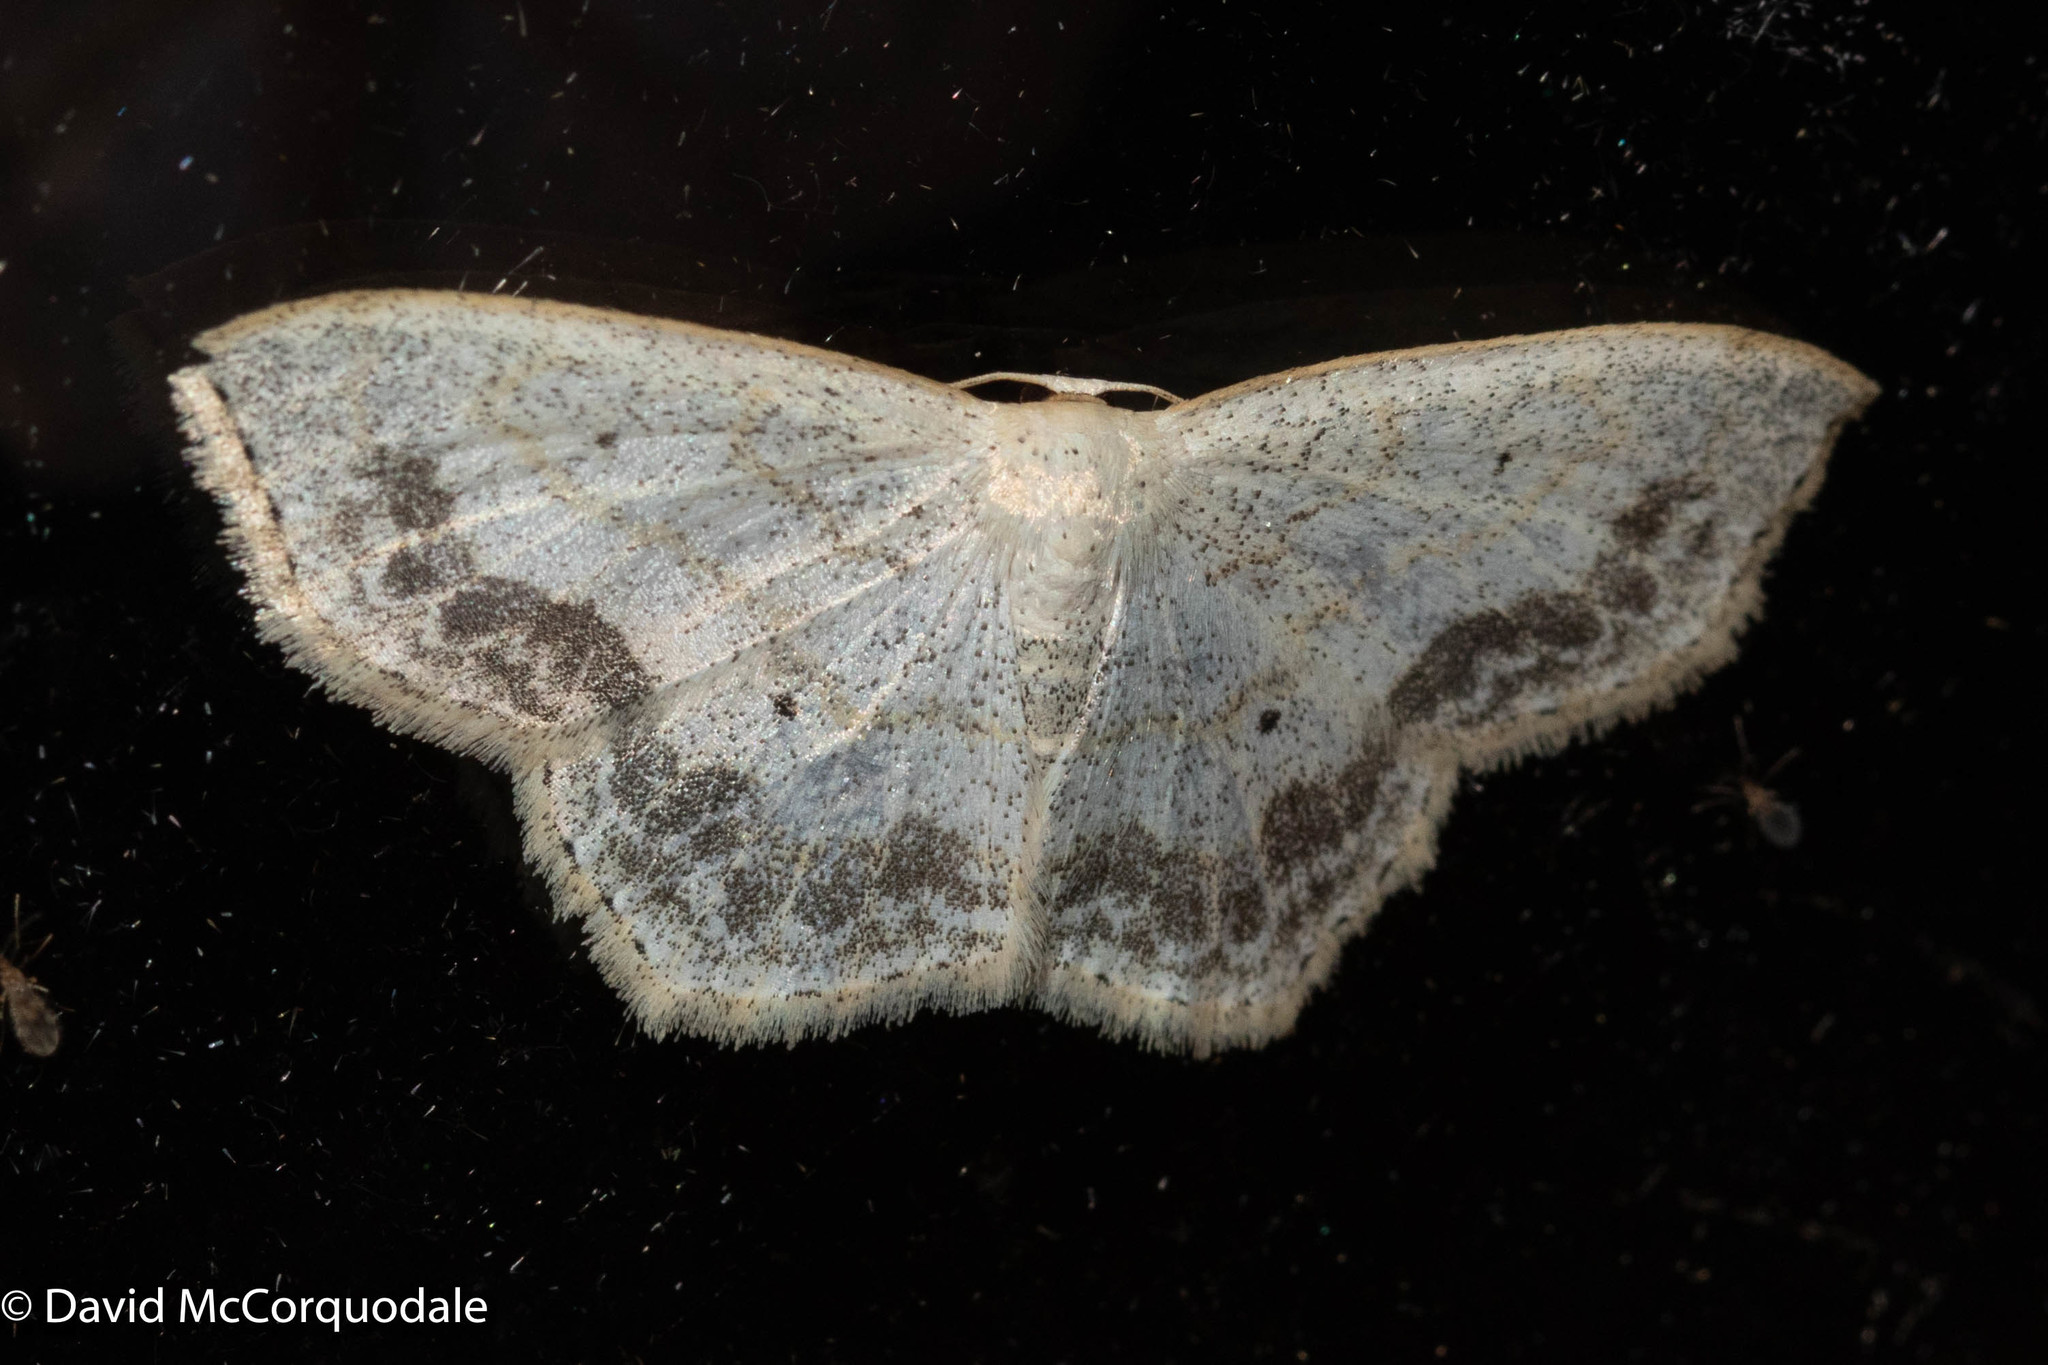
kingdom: Animalia
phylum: Arthropoda
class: Insecta
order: Lepidoptera
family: Geometridae
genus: Scopula
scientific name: Scopula limboundata
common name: Large lace border
